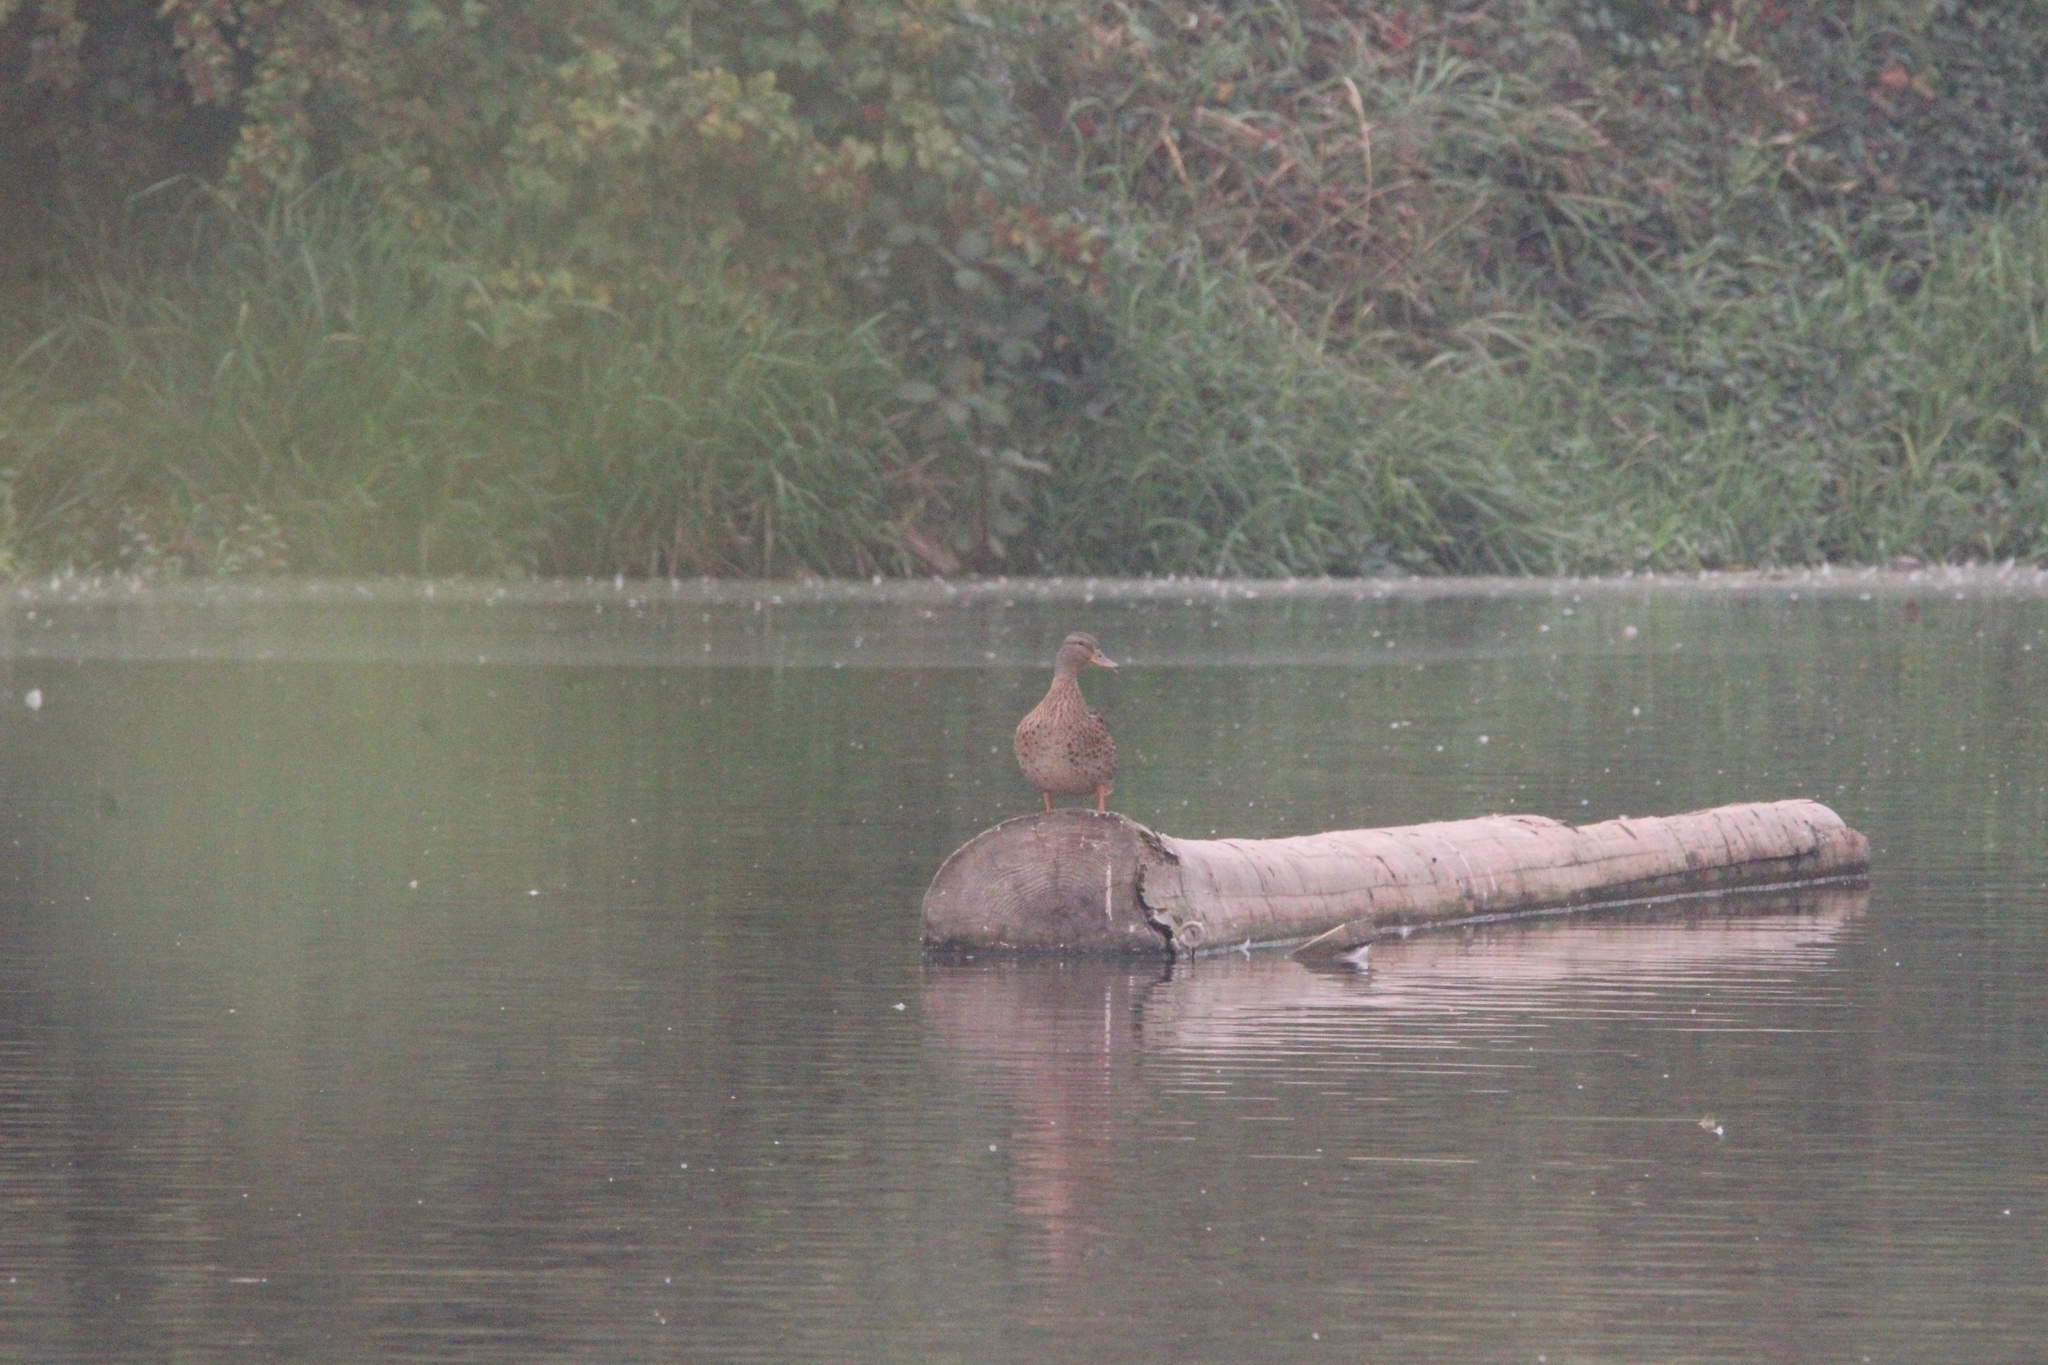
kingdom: Animalia
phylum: Chordata
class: Aves
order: Anseriformes
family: Anatidae
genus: Anas
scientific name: Anas platyrhynchos
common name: Mallard
